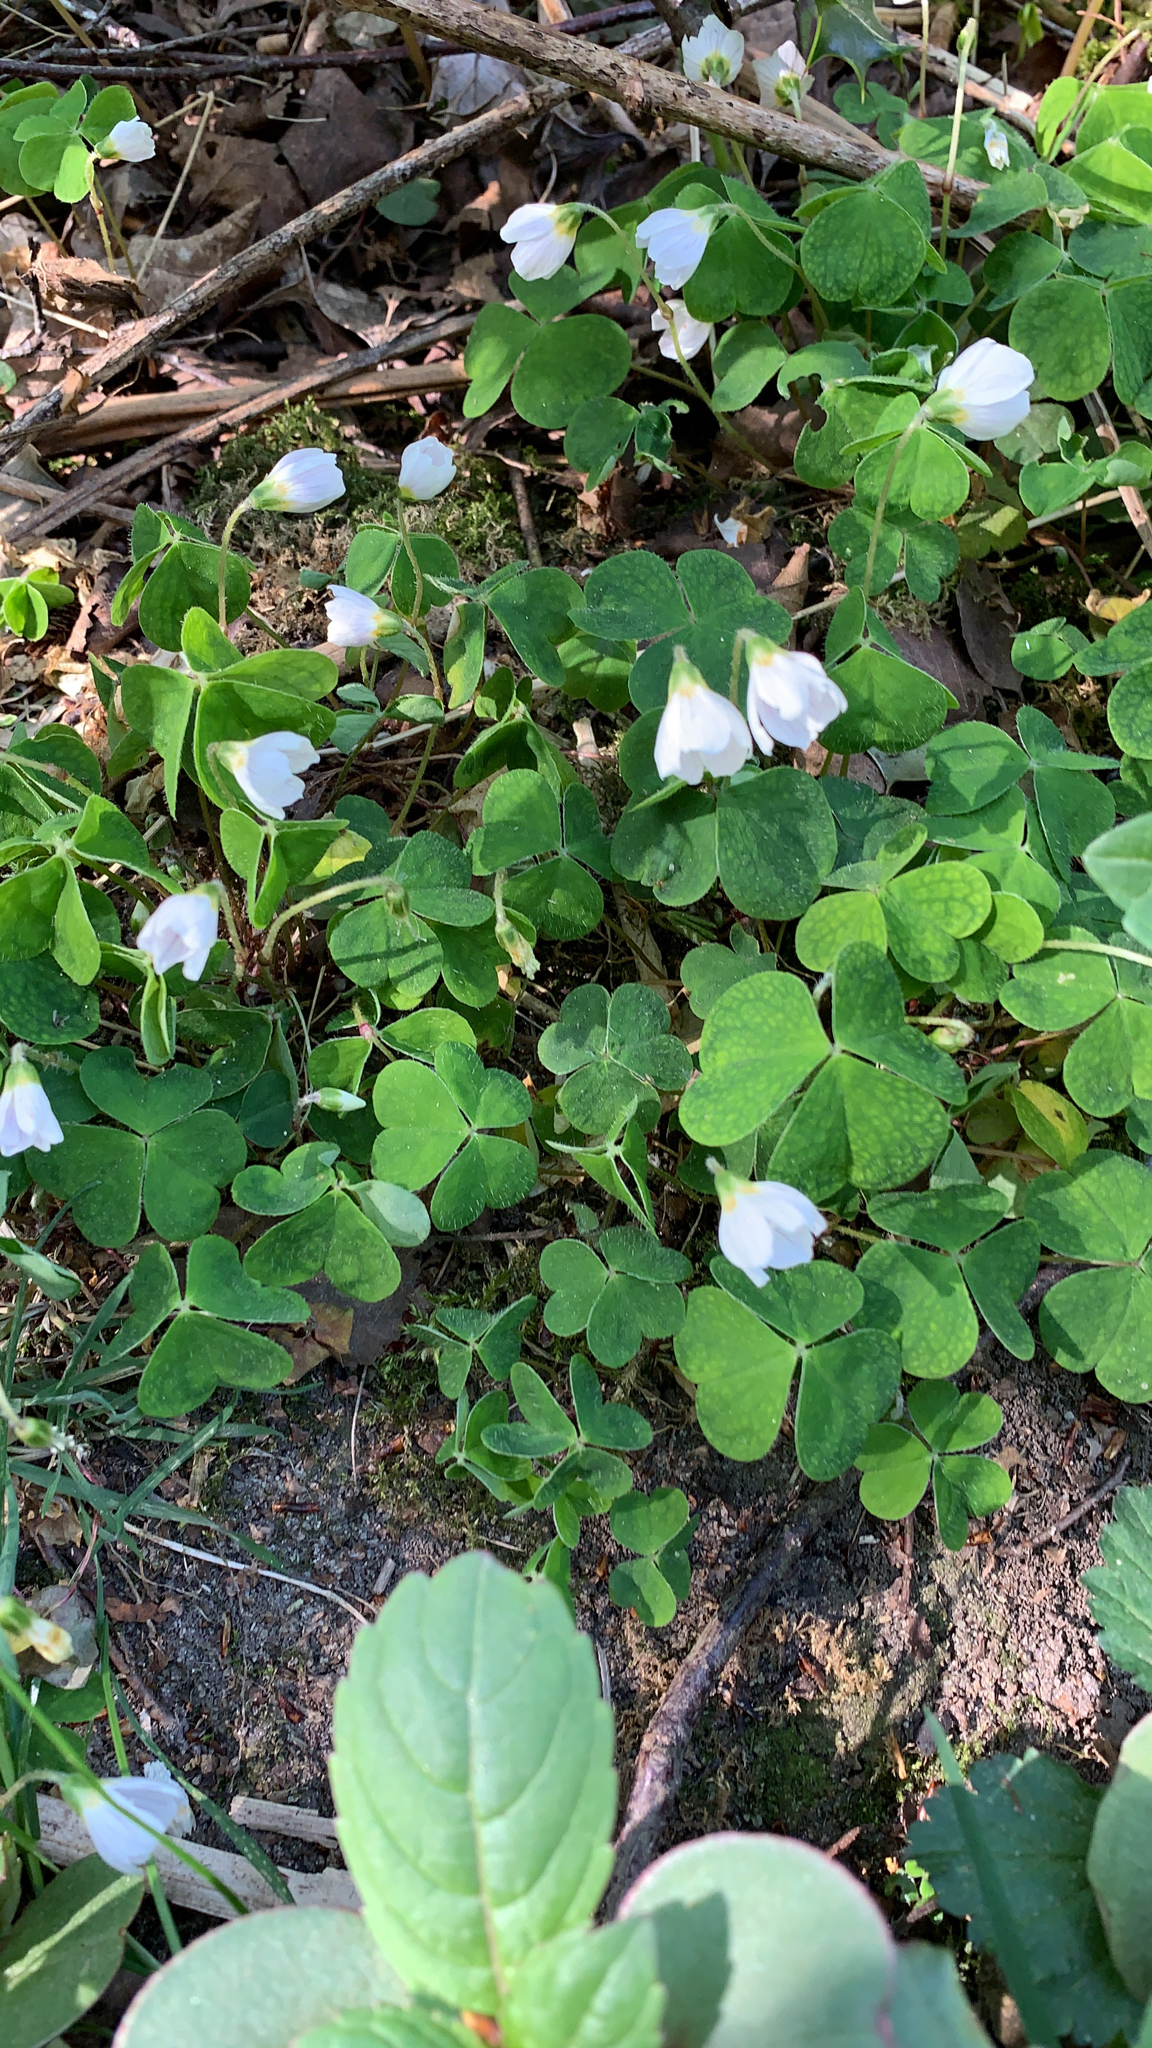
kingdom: Plantae
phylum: Tracheophyta
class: Magnoliopsida
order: Oxalidales
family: Oxalidaceae
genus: Oxalis
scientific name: Oxalis acetosella
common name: Wood-sorrel
